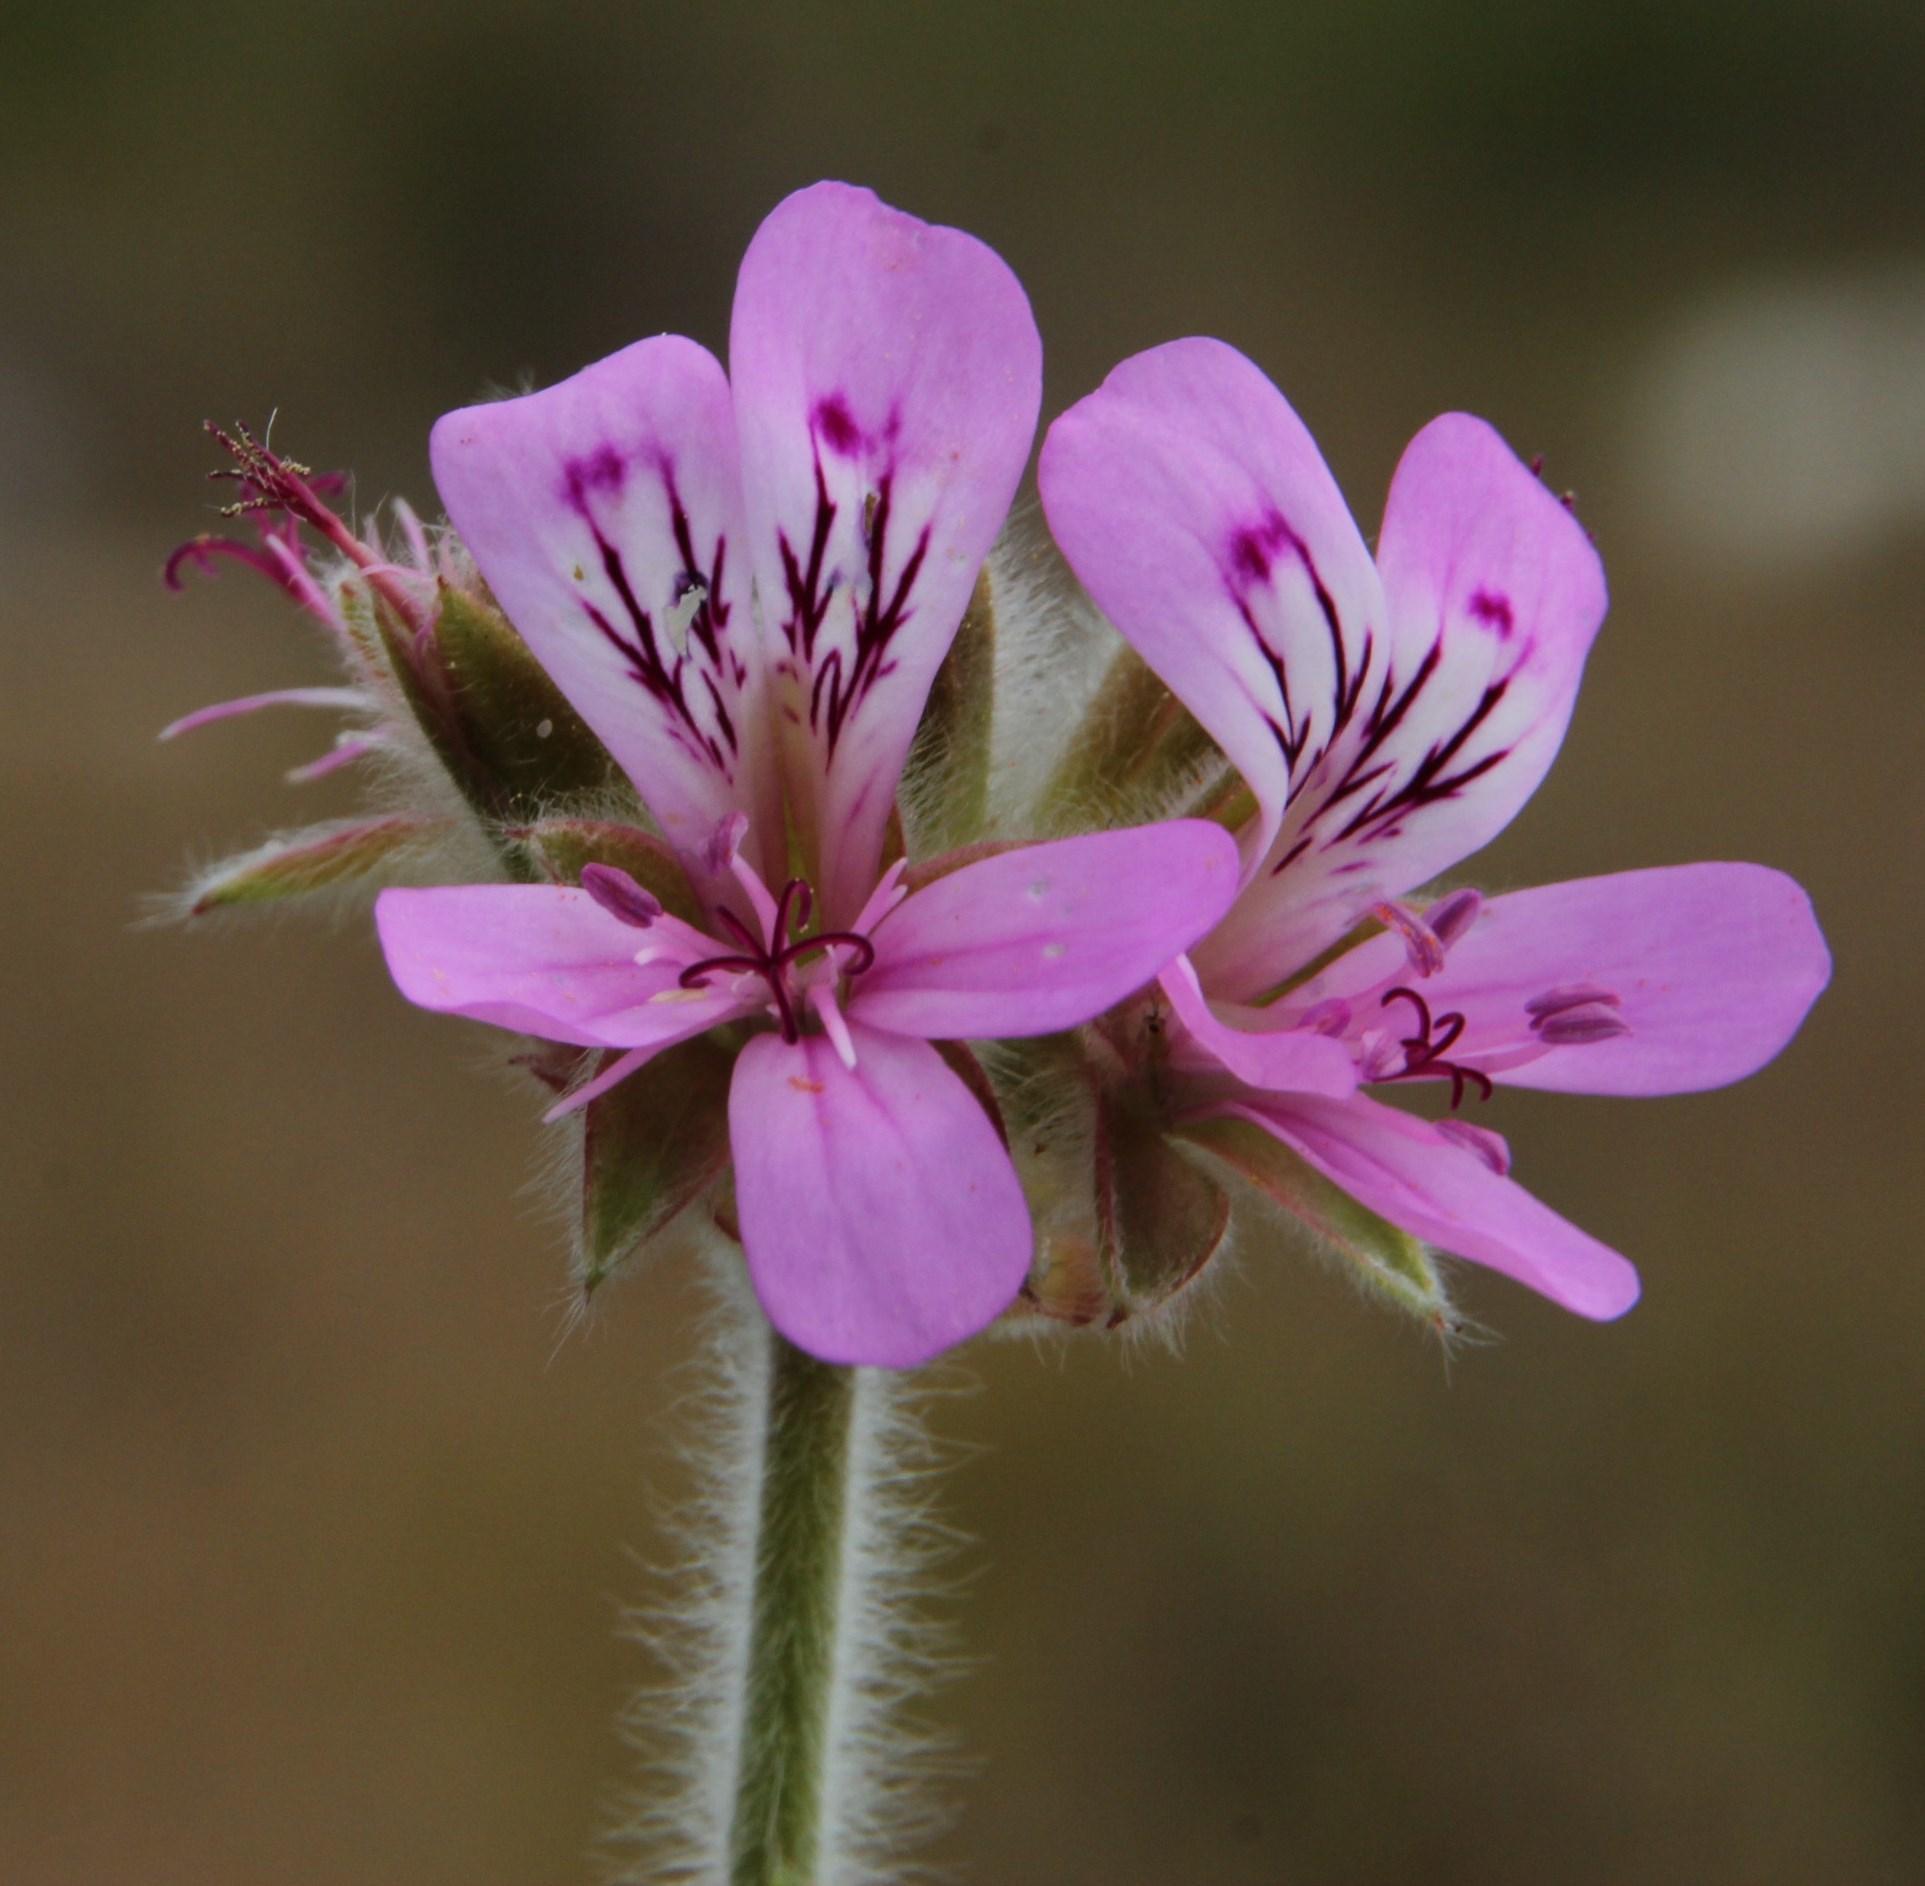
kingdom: Plantae
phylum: Tracheophyta
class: Magnoliopsida
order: Geraniales
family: Geraniaceae
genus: Pelargonium
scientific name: Pelargonium capitatum
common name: Rose scented geranium
